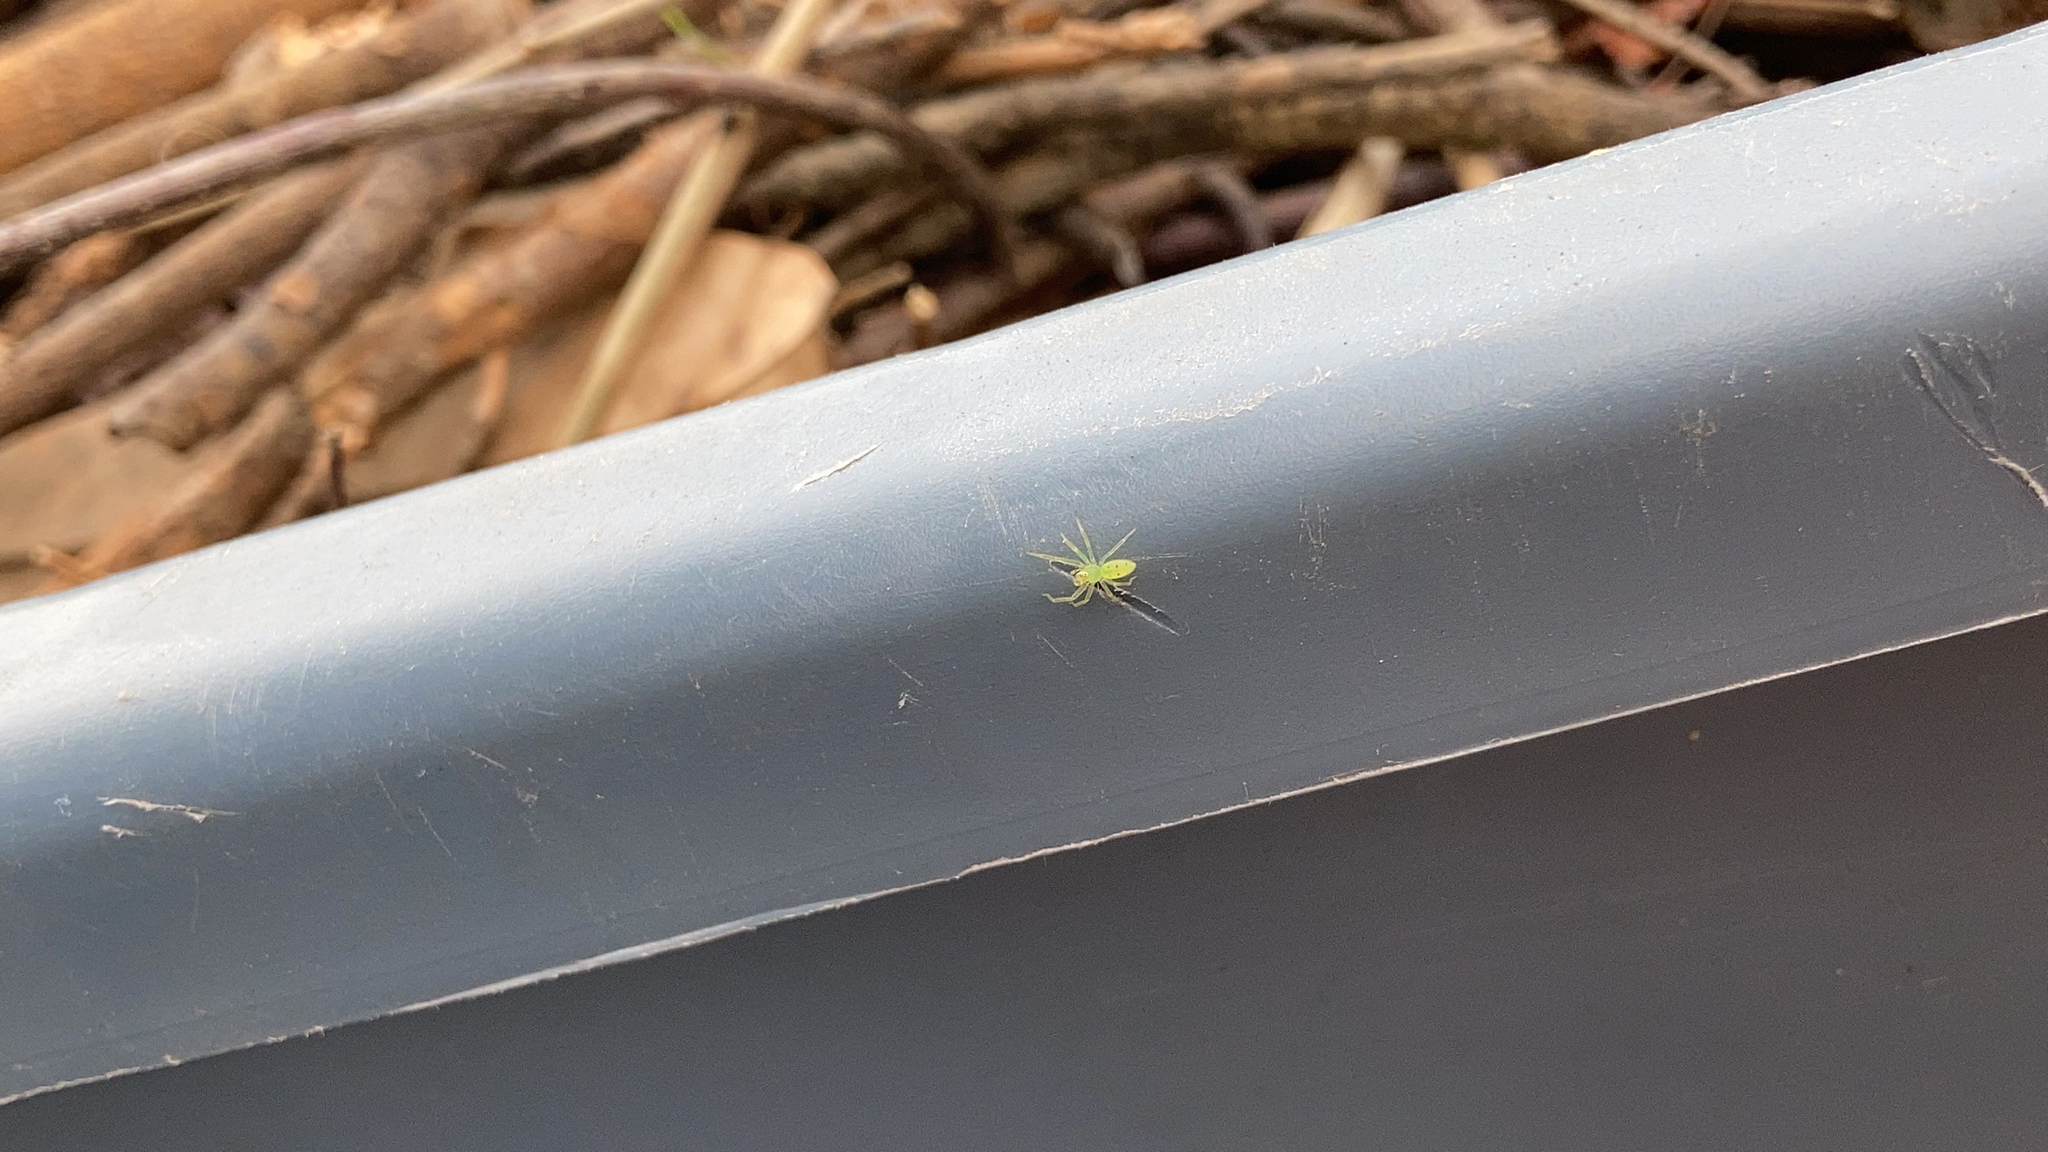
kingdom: Animalia
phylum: Arthropoda
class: Arachnida
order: Araneae
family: Salticidae
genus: Lyssomanes
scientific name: Lyssomanes viridis
